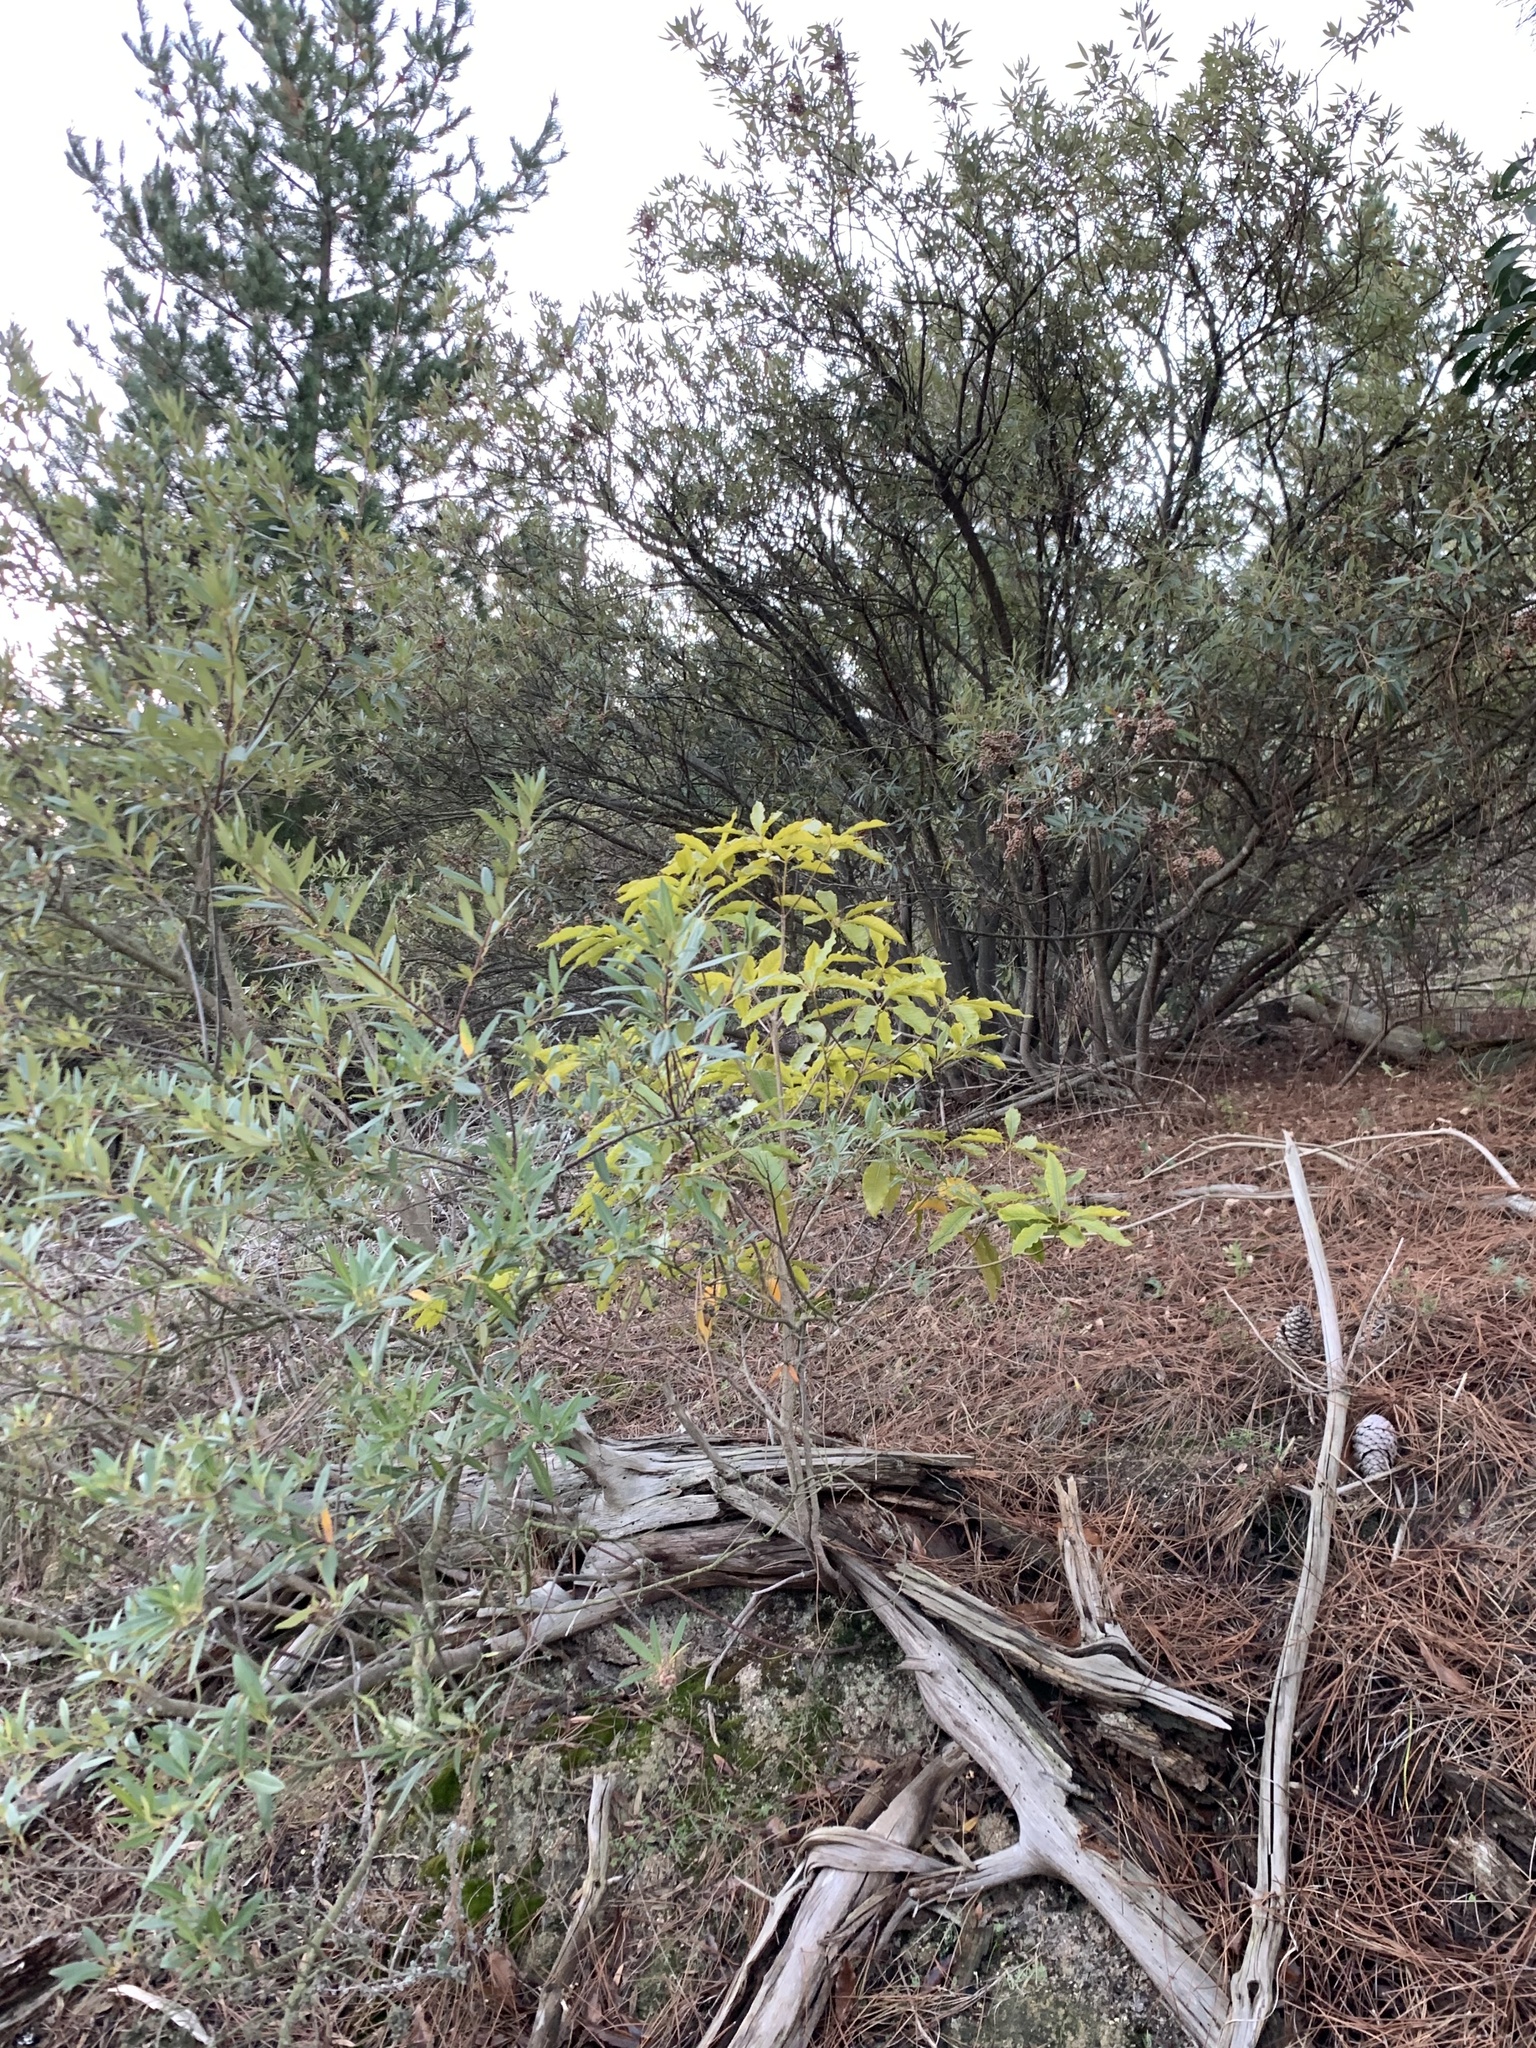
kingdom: Plantae
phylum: Tracheophyta
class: Magnoliopsida
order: Apiales
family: Pittosporaceae
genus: Pittosporum
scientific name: Pittosporum undulatum
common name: Australian cheesewood
